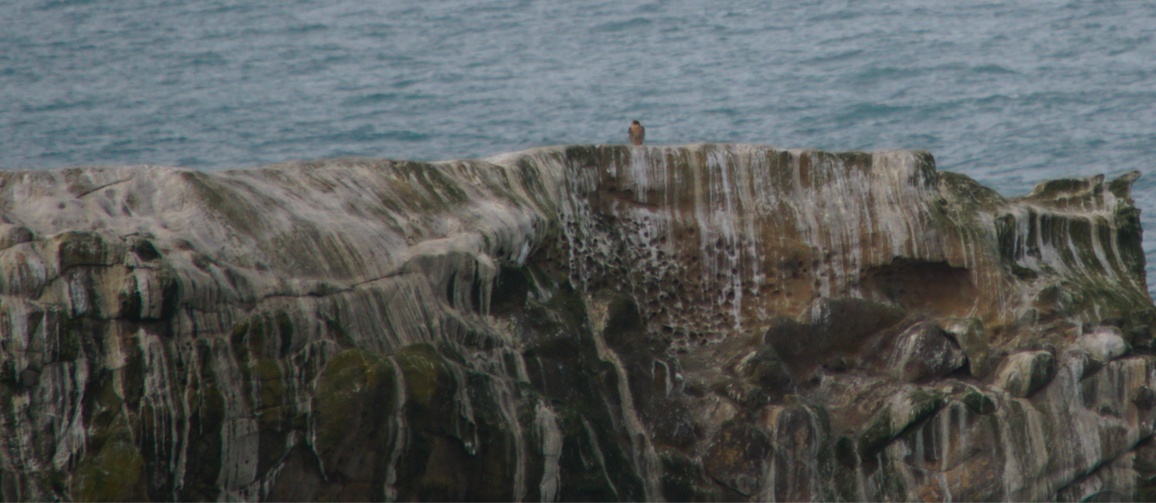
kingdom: Animalia
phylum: Chordata
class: Aves
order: Falconiformes
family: Falconidae
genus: Falco
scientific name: Falco peregrinus
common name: Peregrine falcon
